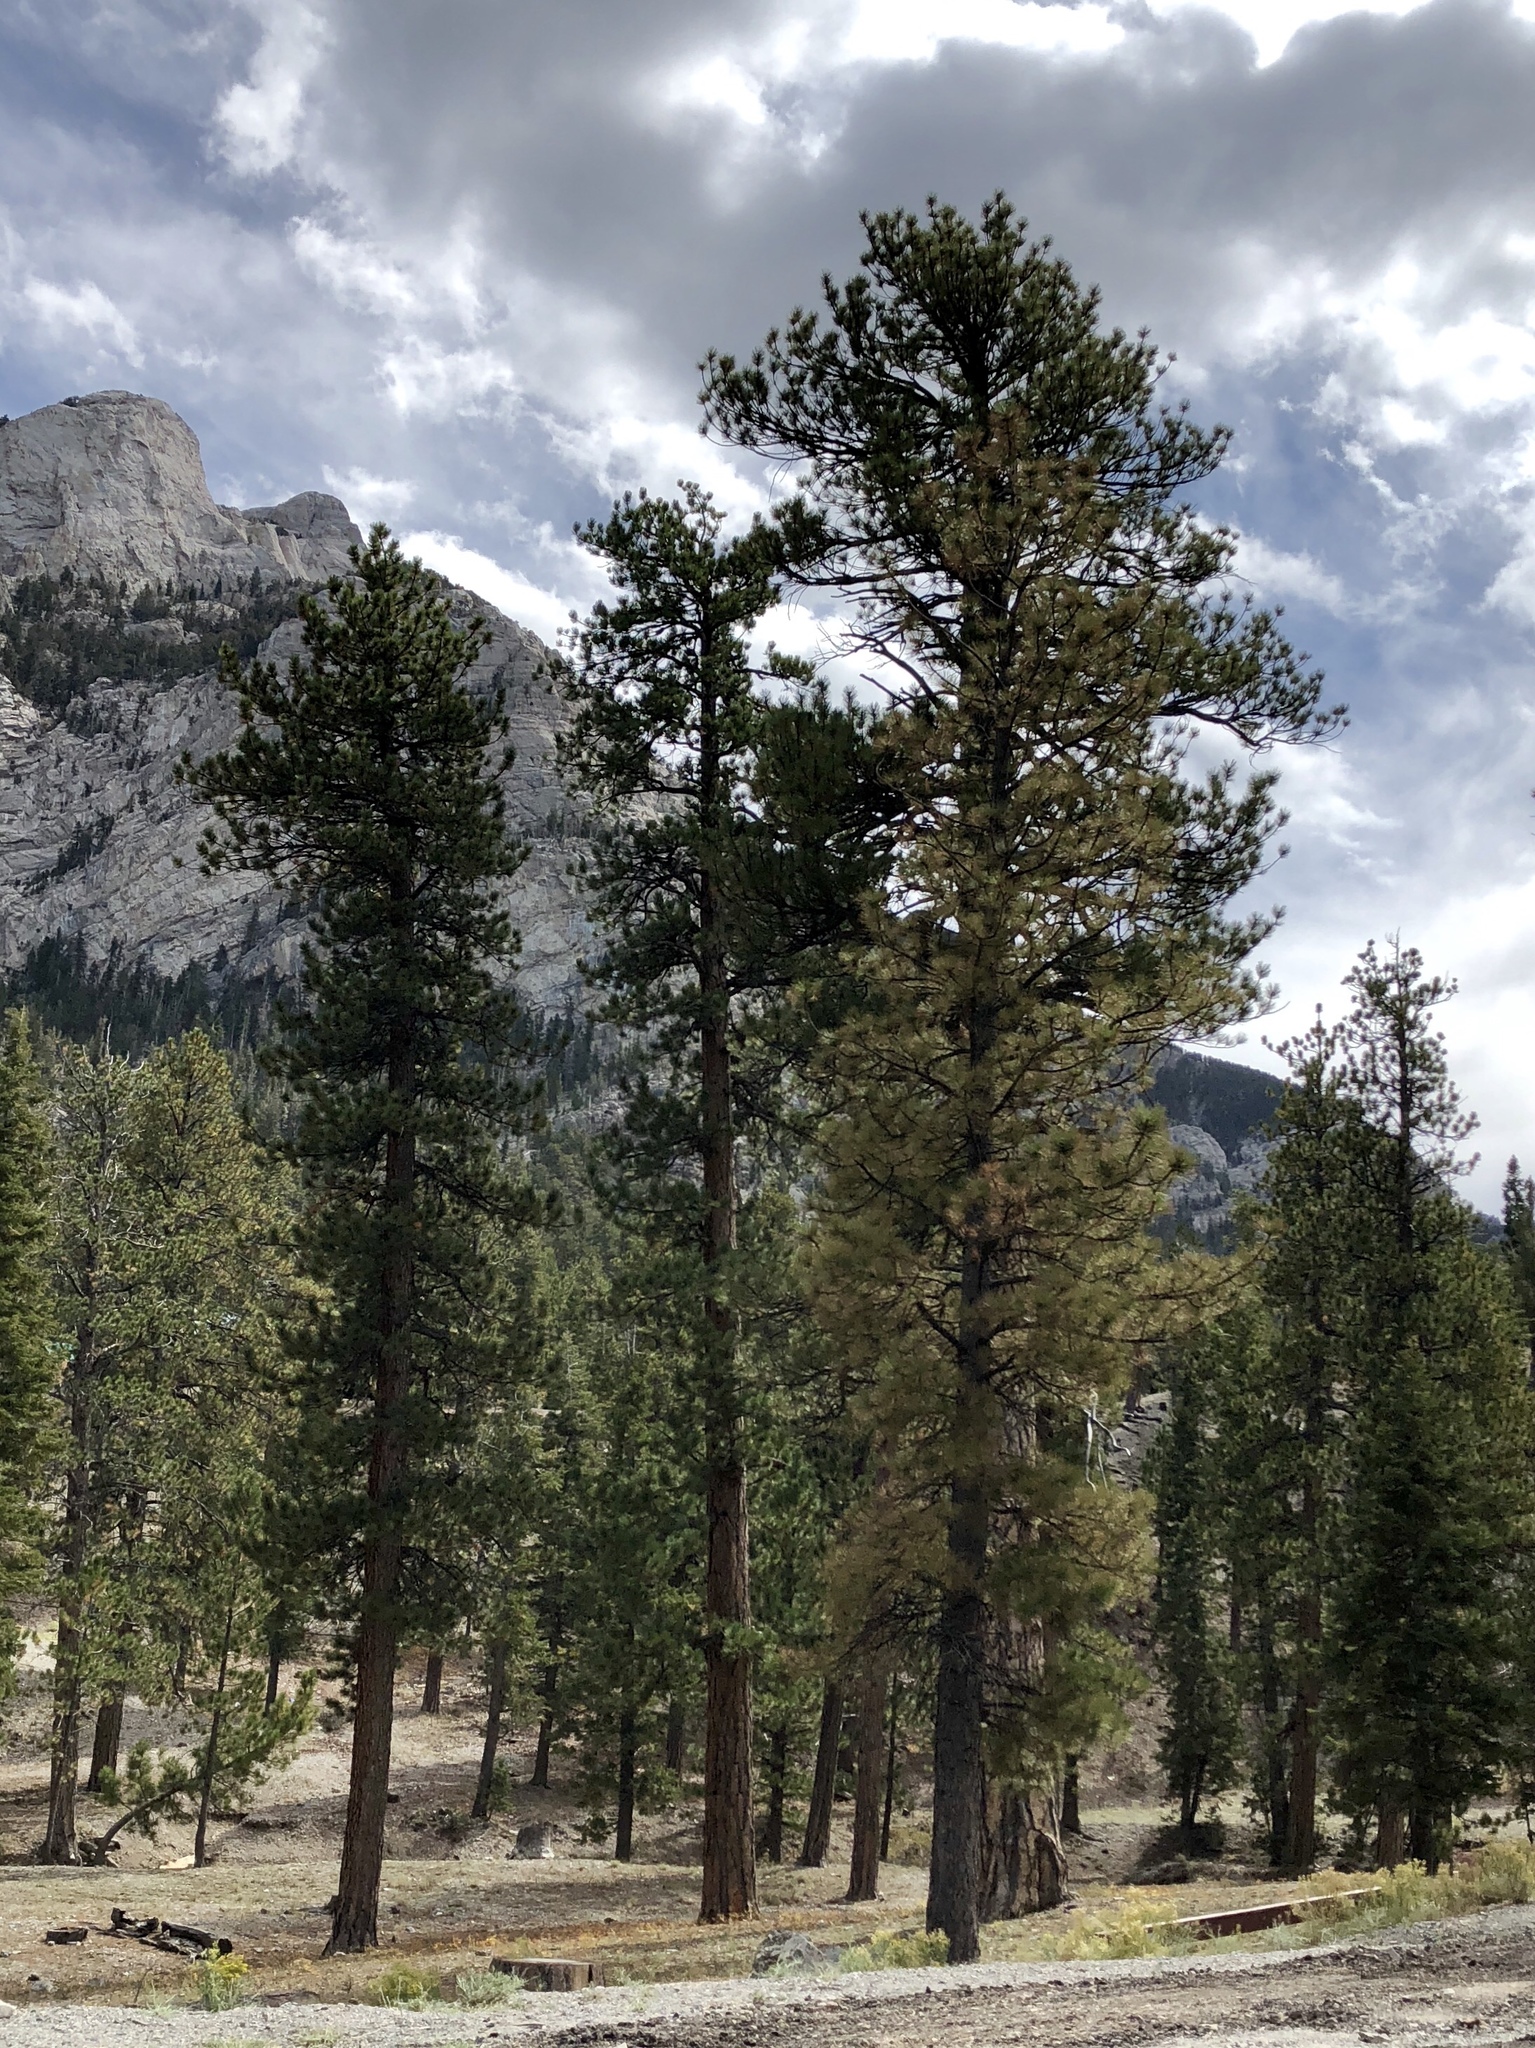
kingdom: Plantae
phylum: Tracheophyta
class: Pinopsida
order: Pinales
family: Pinaceae
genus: Pinus
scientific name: Pinus ponderosa
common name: Western yellow-pine
